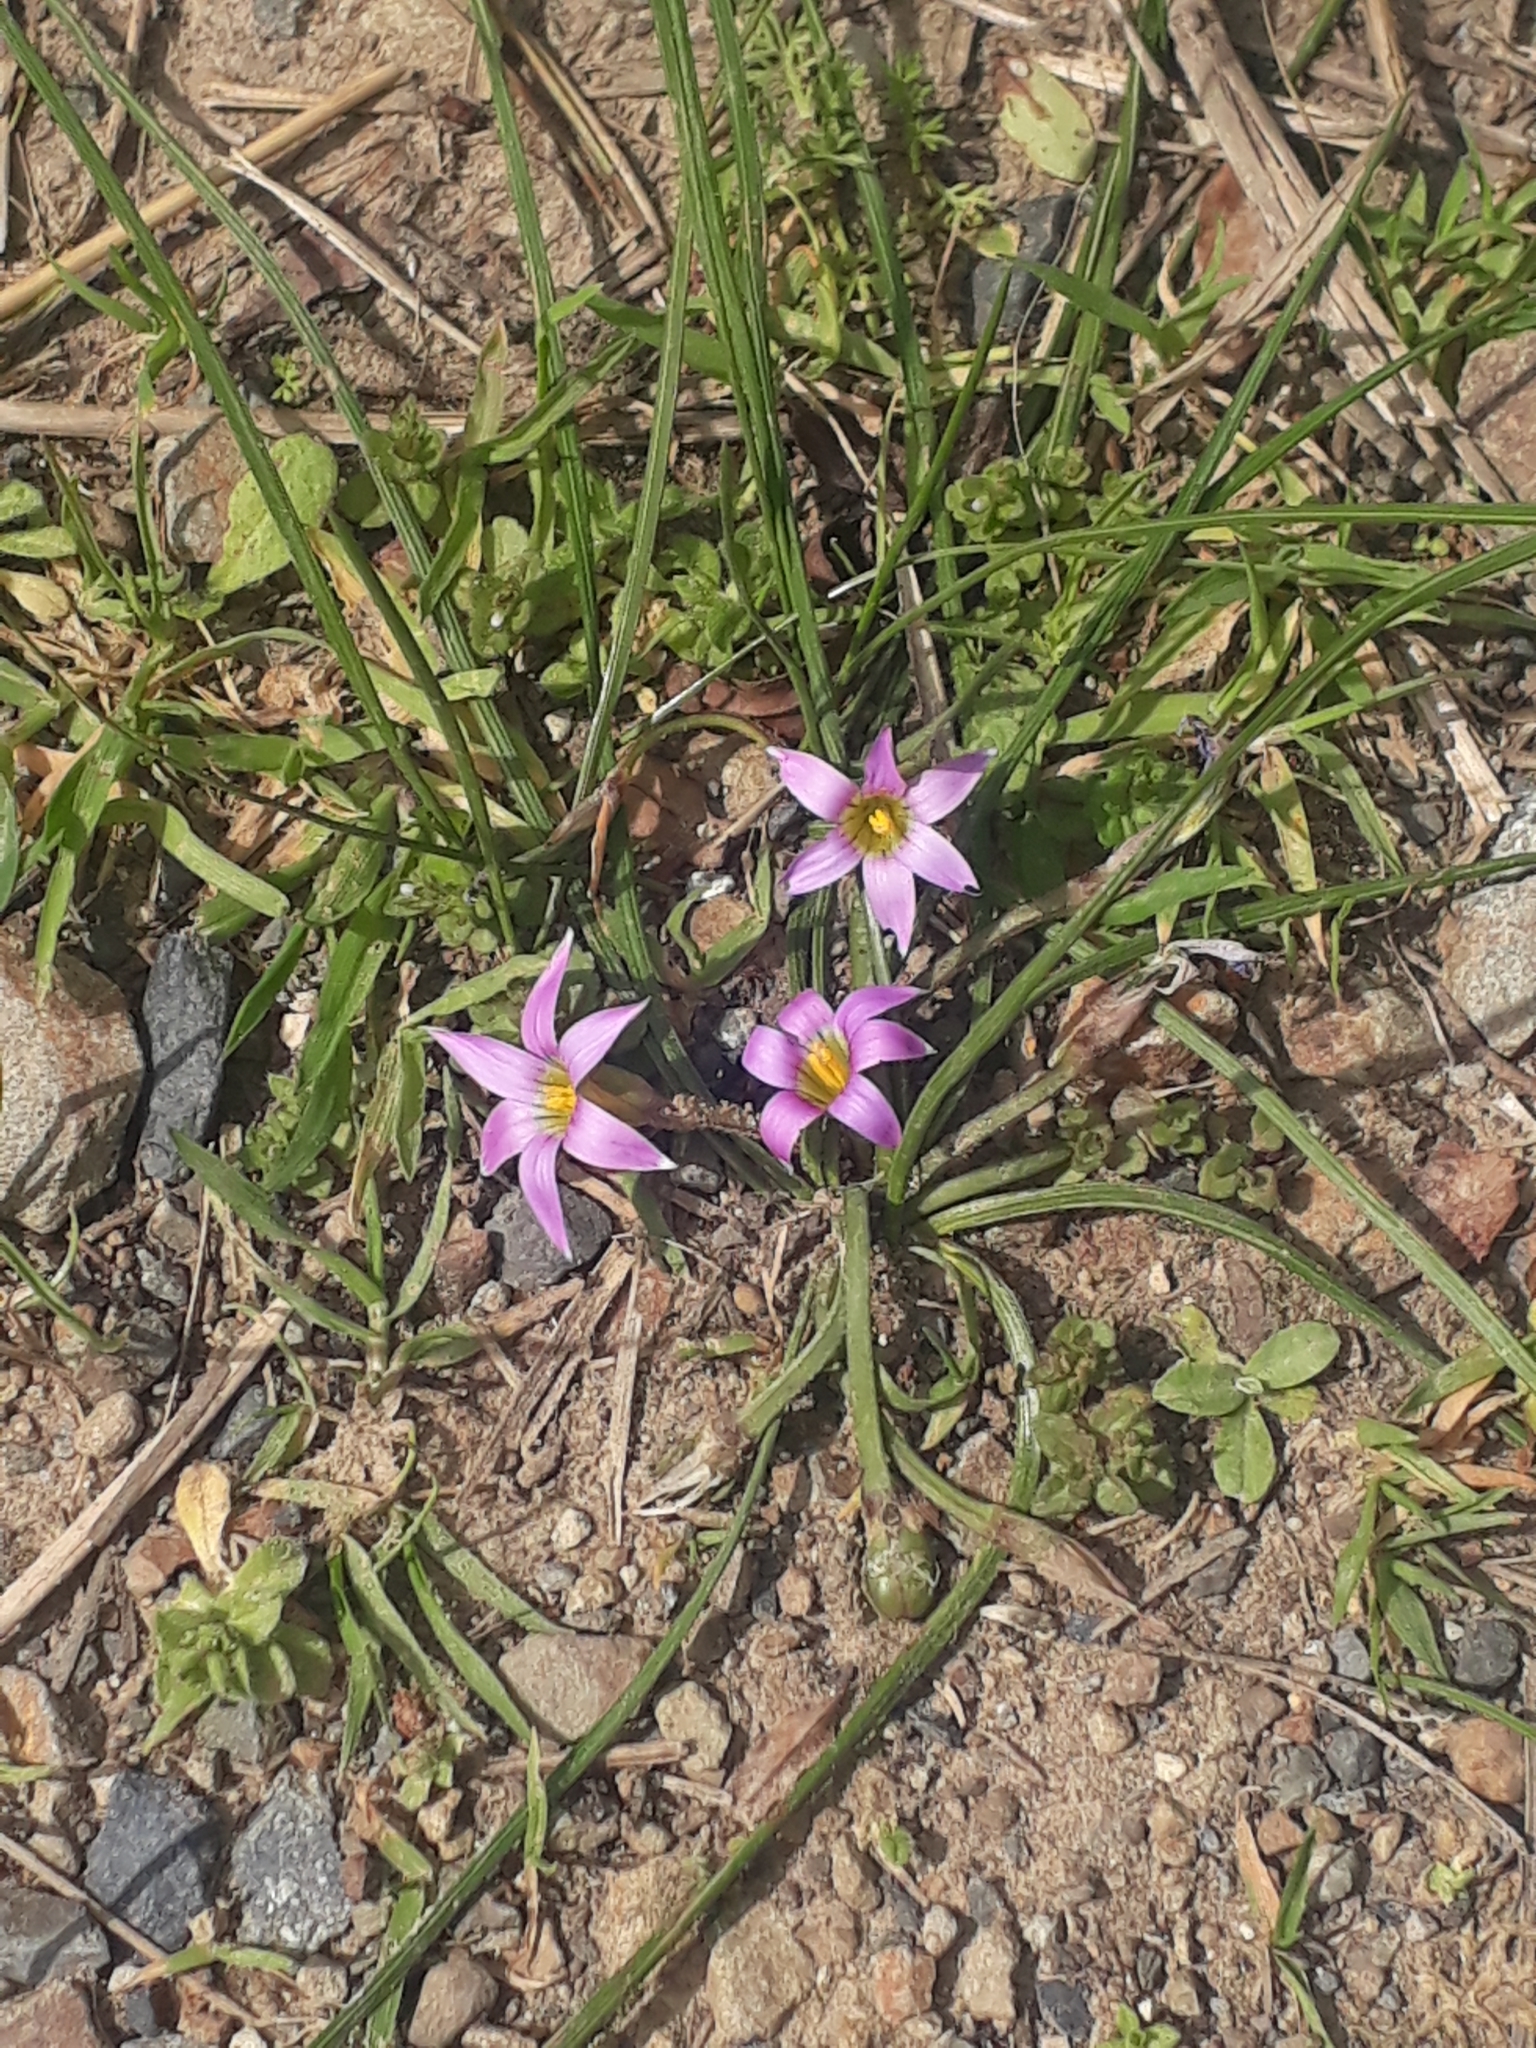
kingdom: Plantae
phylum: Tracheophyta
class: Liliopsida
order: Asparagales
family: Iridaceae
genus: Romulea
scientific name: Romulea rosea
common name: Oniongrass
